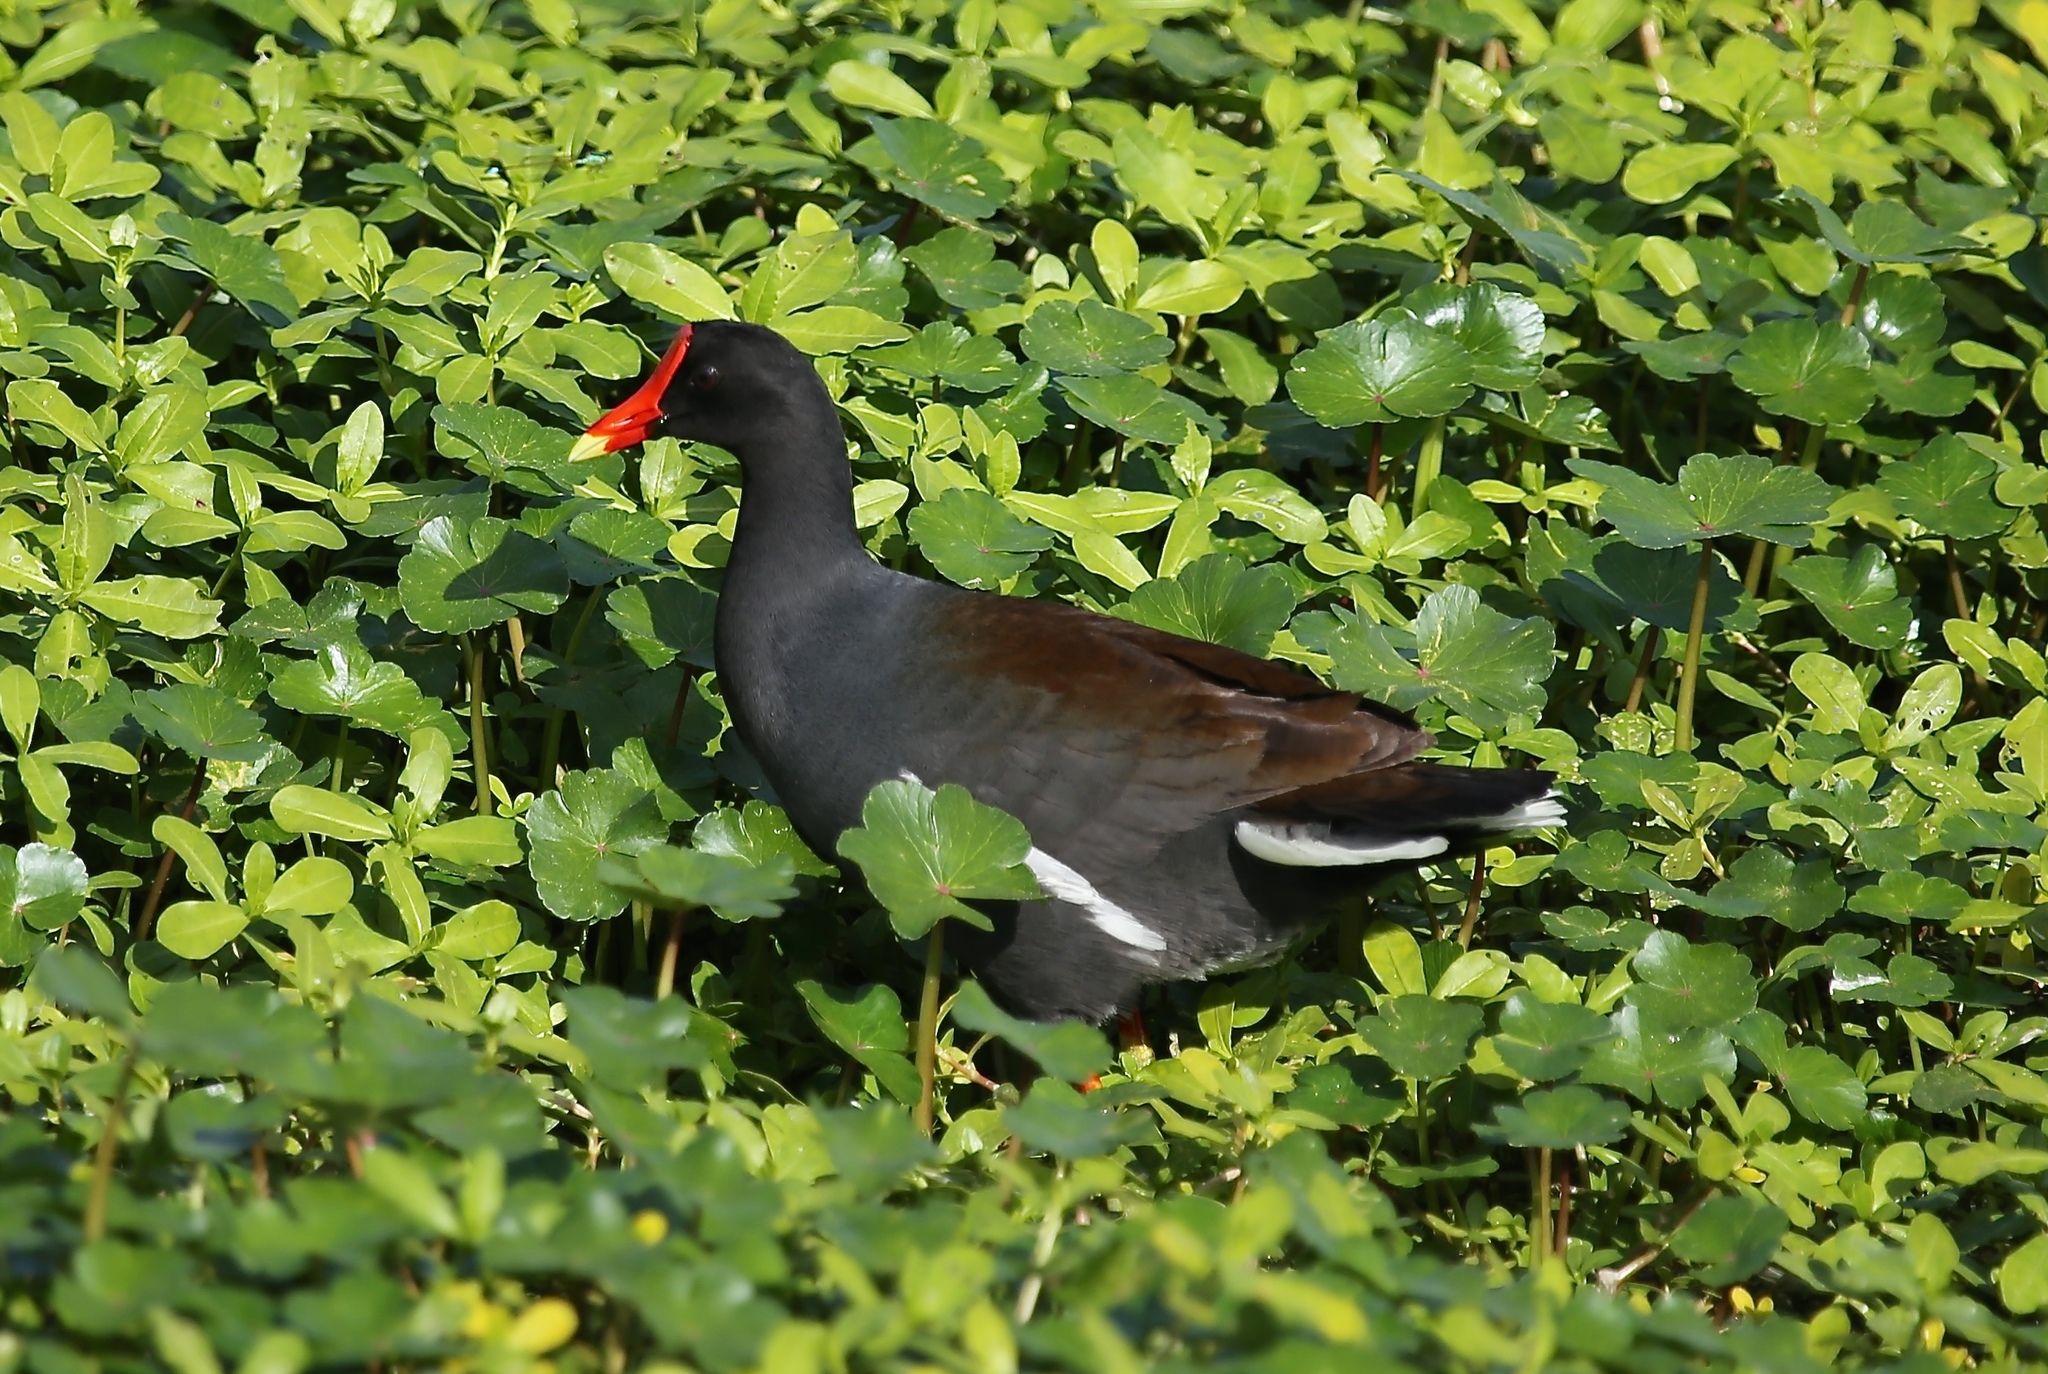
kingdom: Animalia
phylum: Chordata
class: Aves
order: Gruiformes
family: Rallidae
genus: Gallinula
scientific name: Gallinula chloropus
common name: Common moorhen
